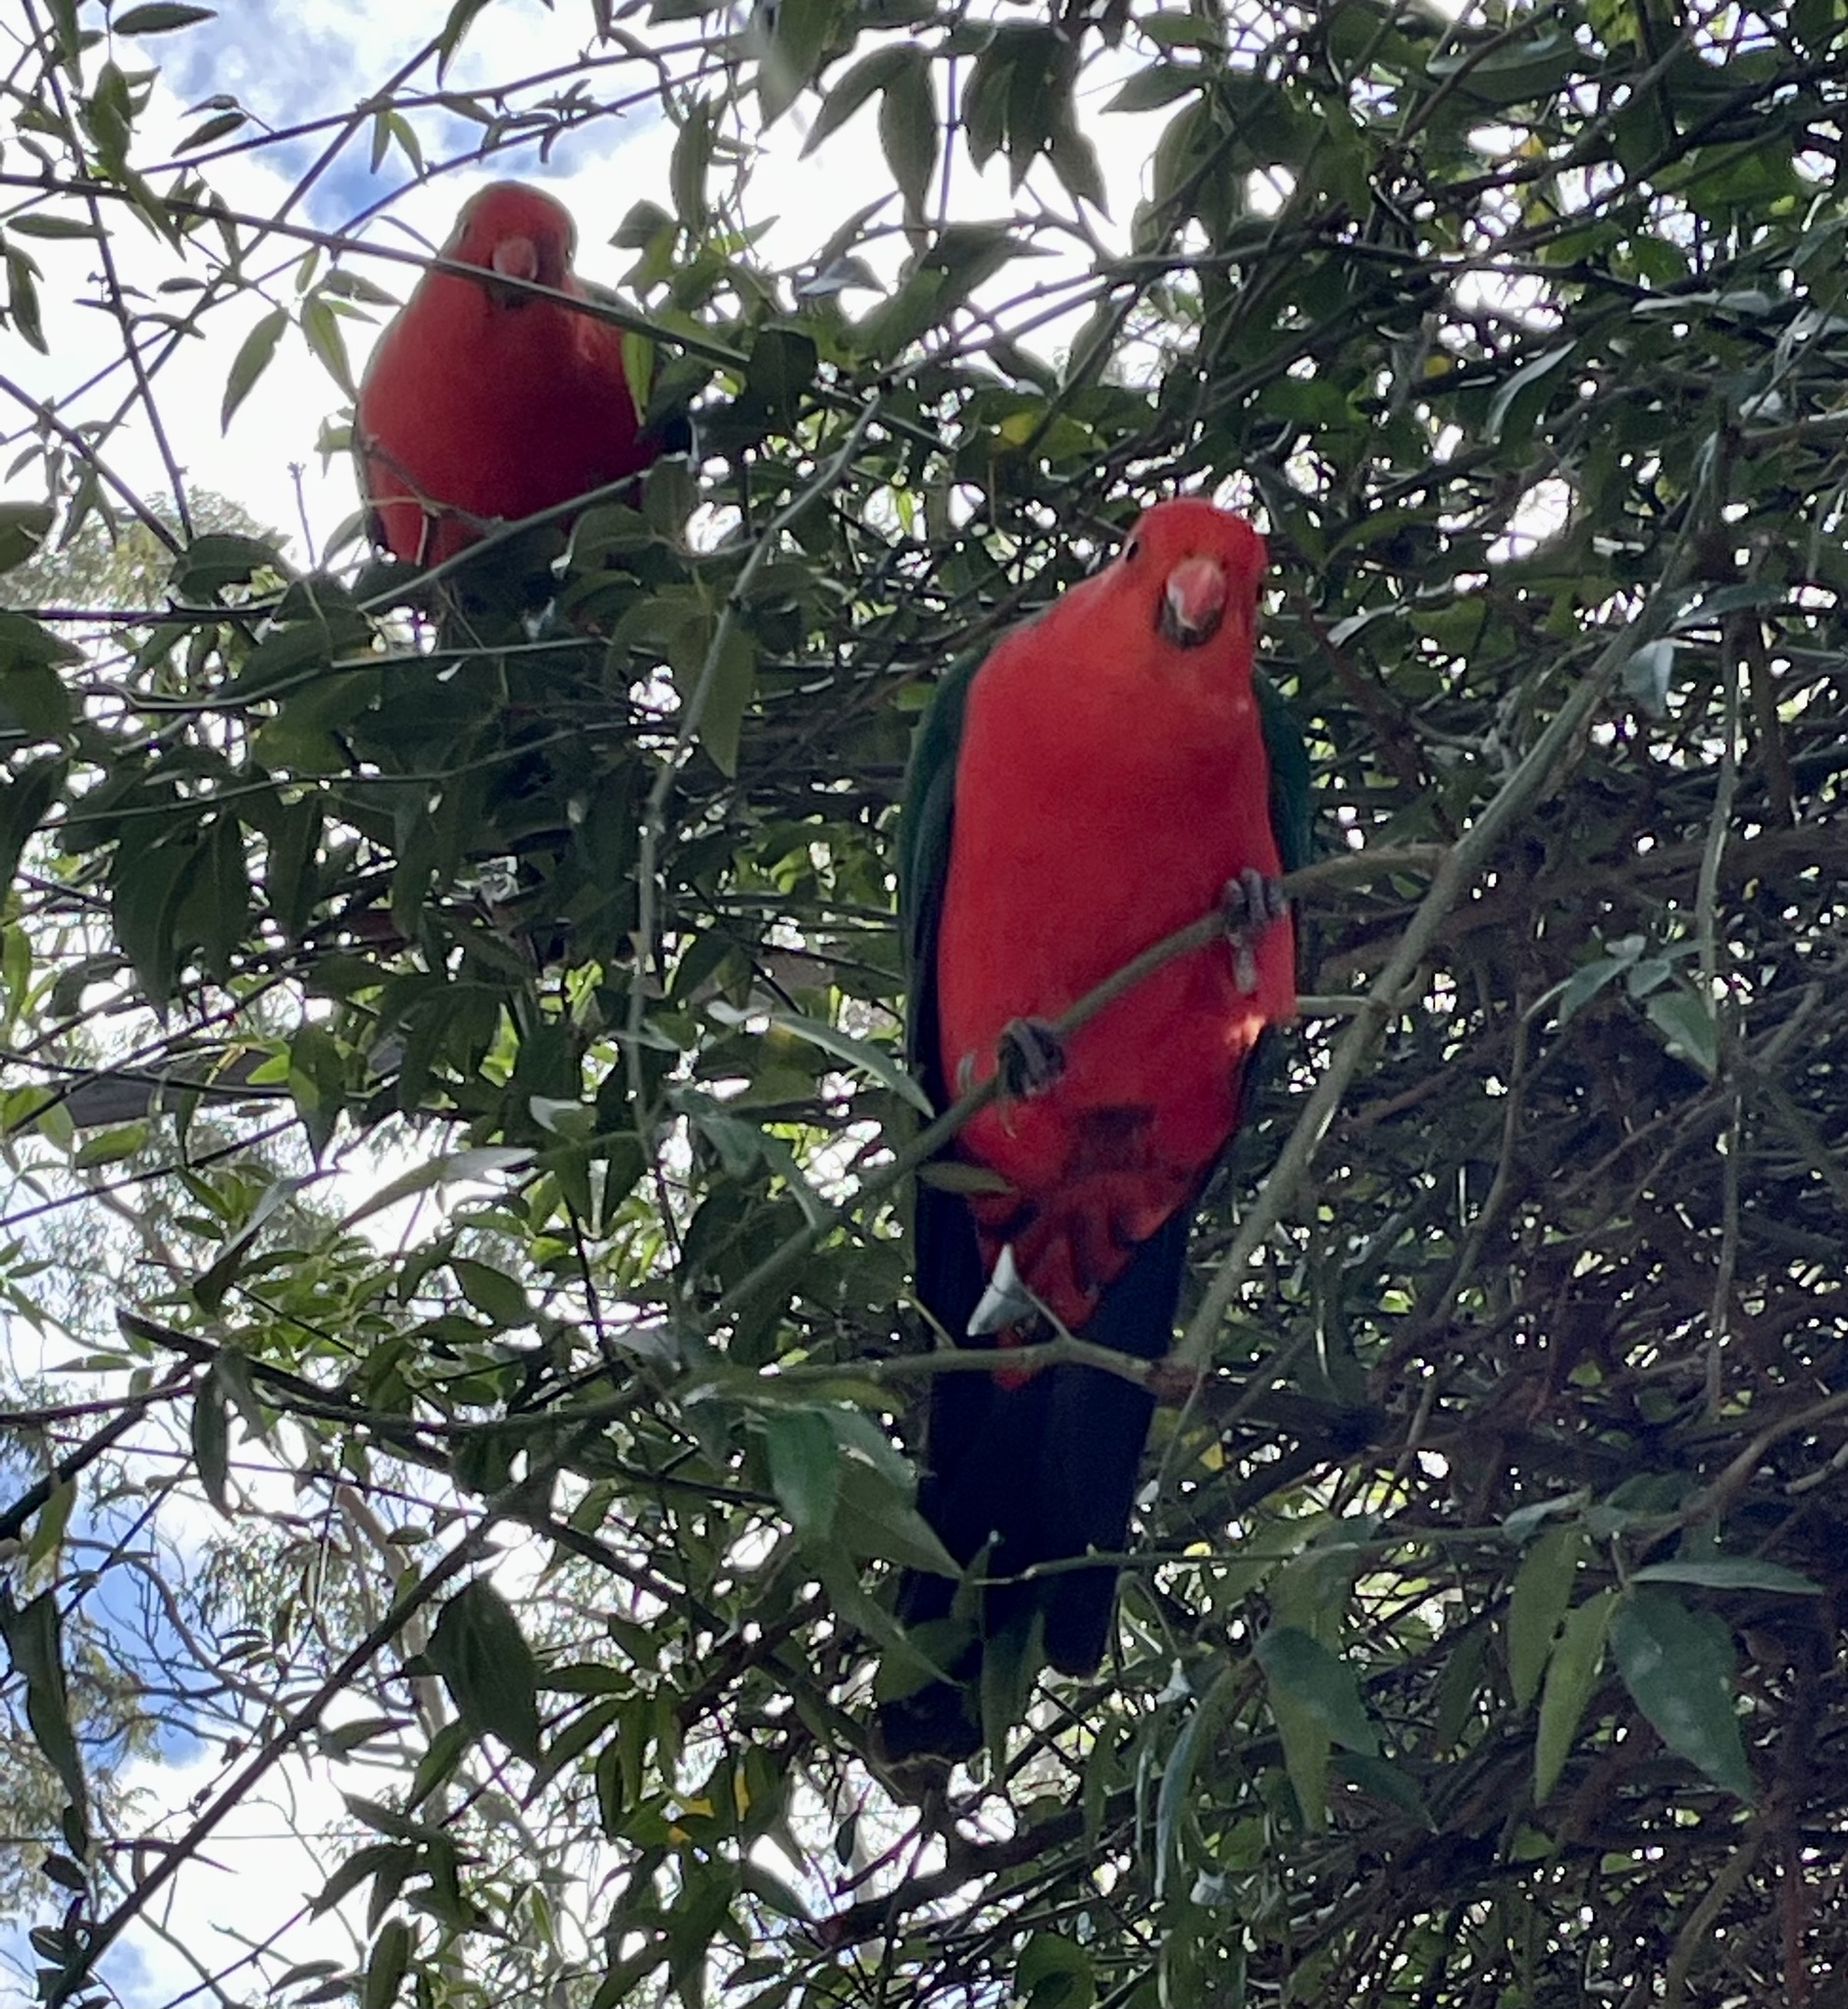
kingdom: Animalia
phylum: Chordata
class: Aves
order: Psittaciformes
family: Psittacidae
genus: Alisterus
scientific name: Alisterus scapularis
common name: Australian king parrot
